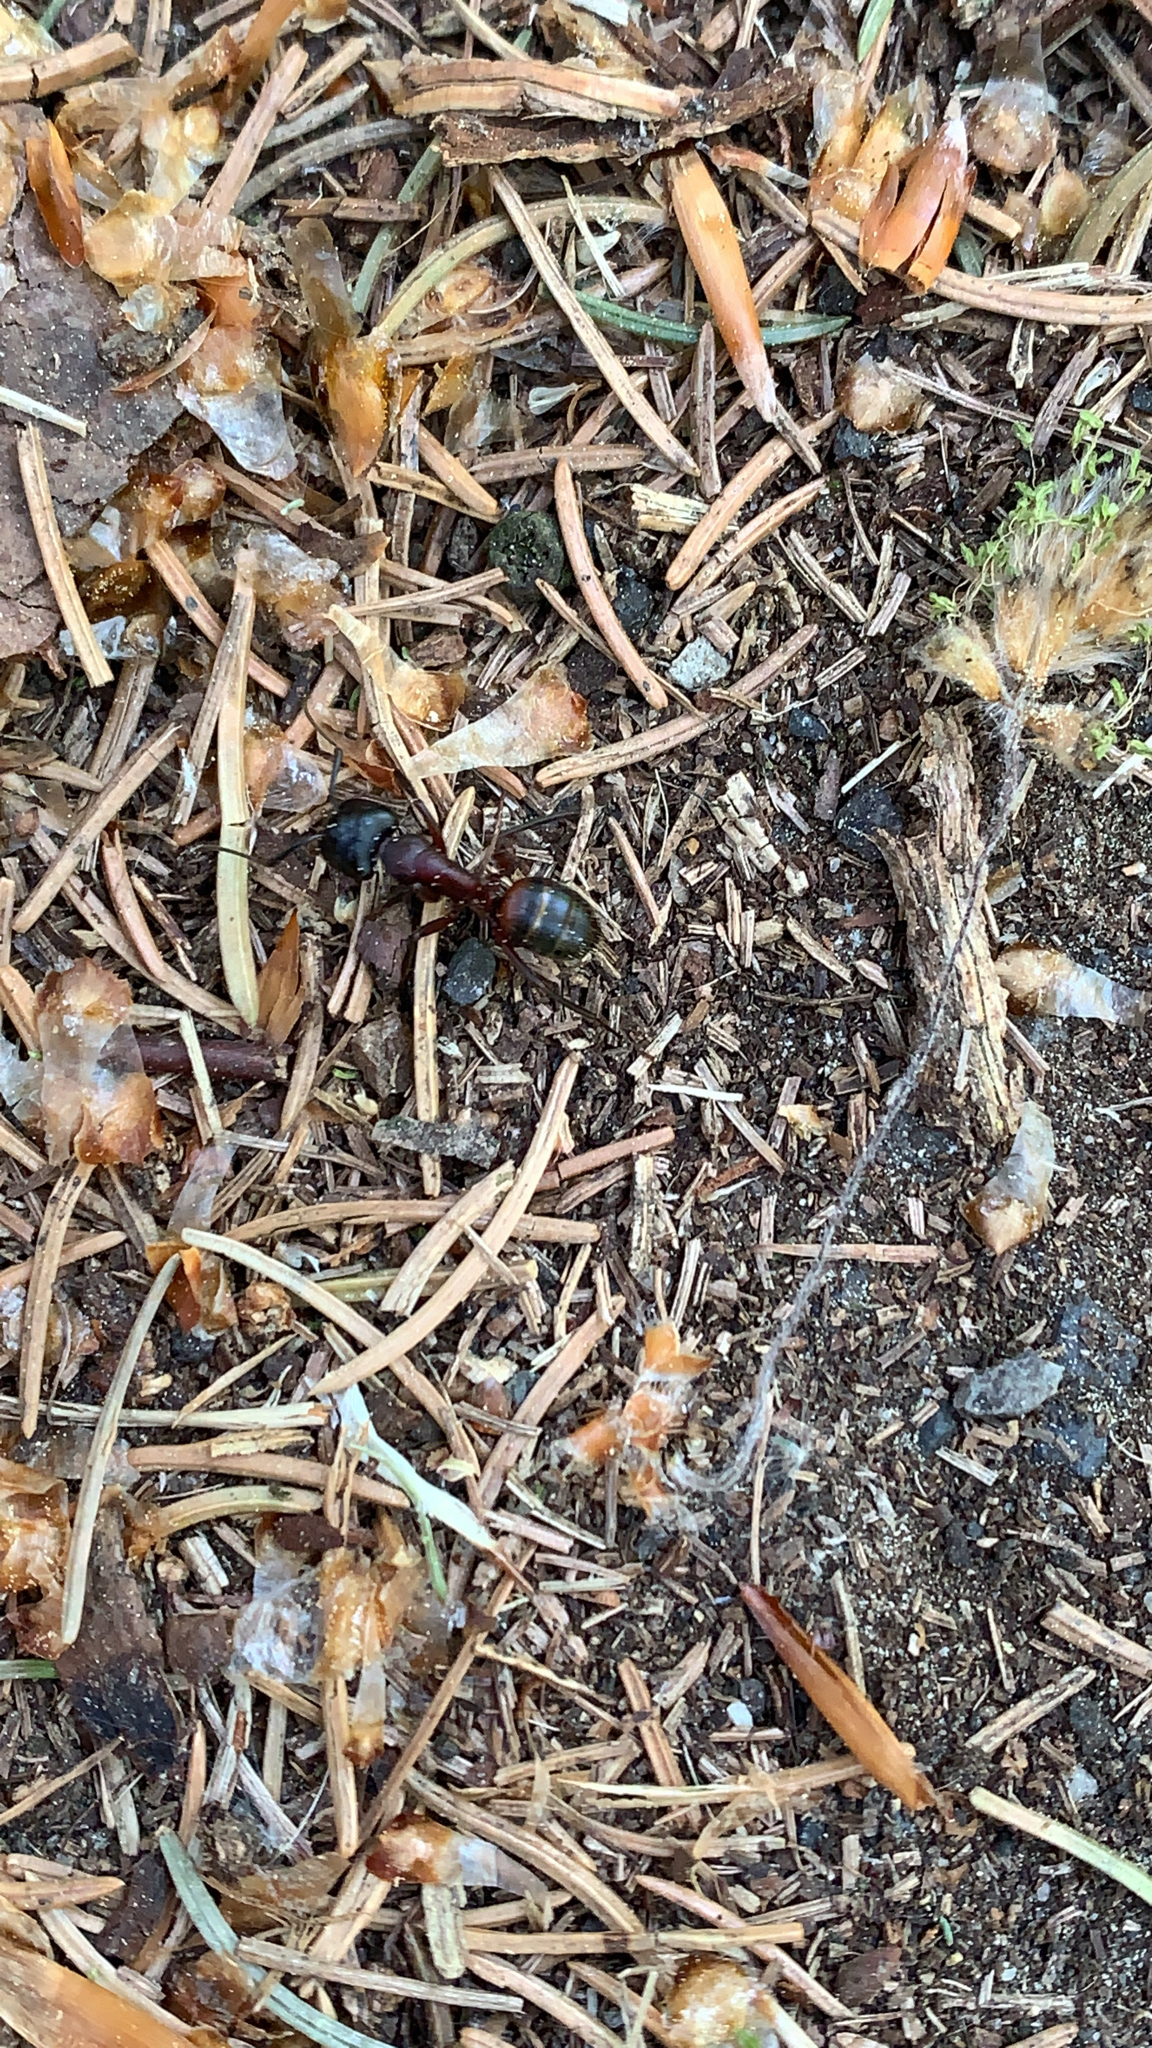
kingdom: Animalia
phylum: Arthropoda
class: Insecta
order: Hymenoptera
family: Formicidae
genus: Camponotus
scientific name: Camponotus ligniperdus
